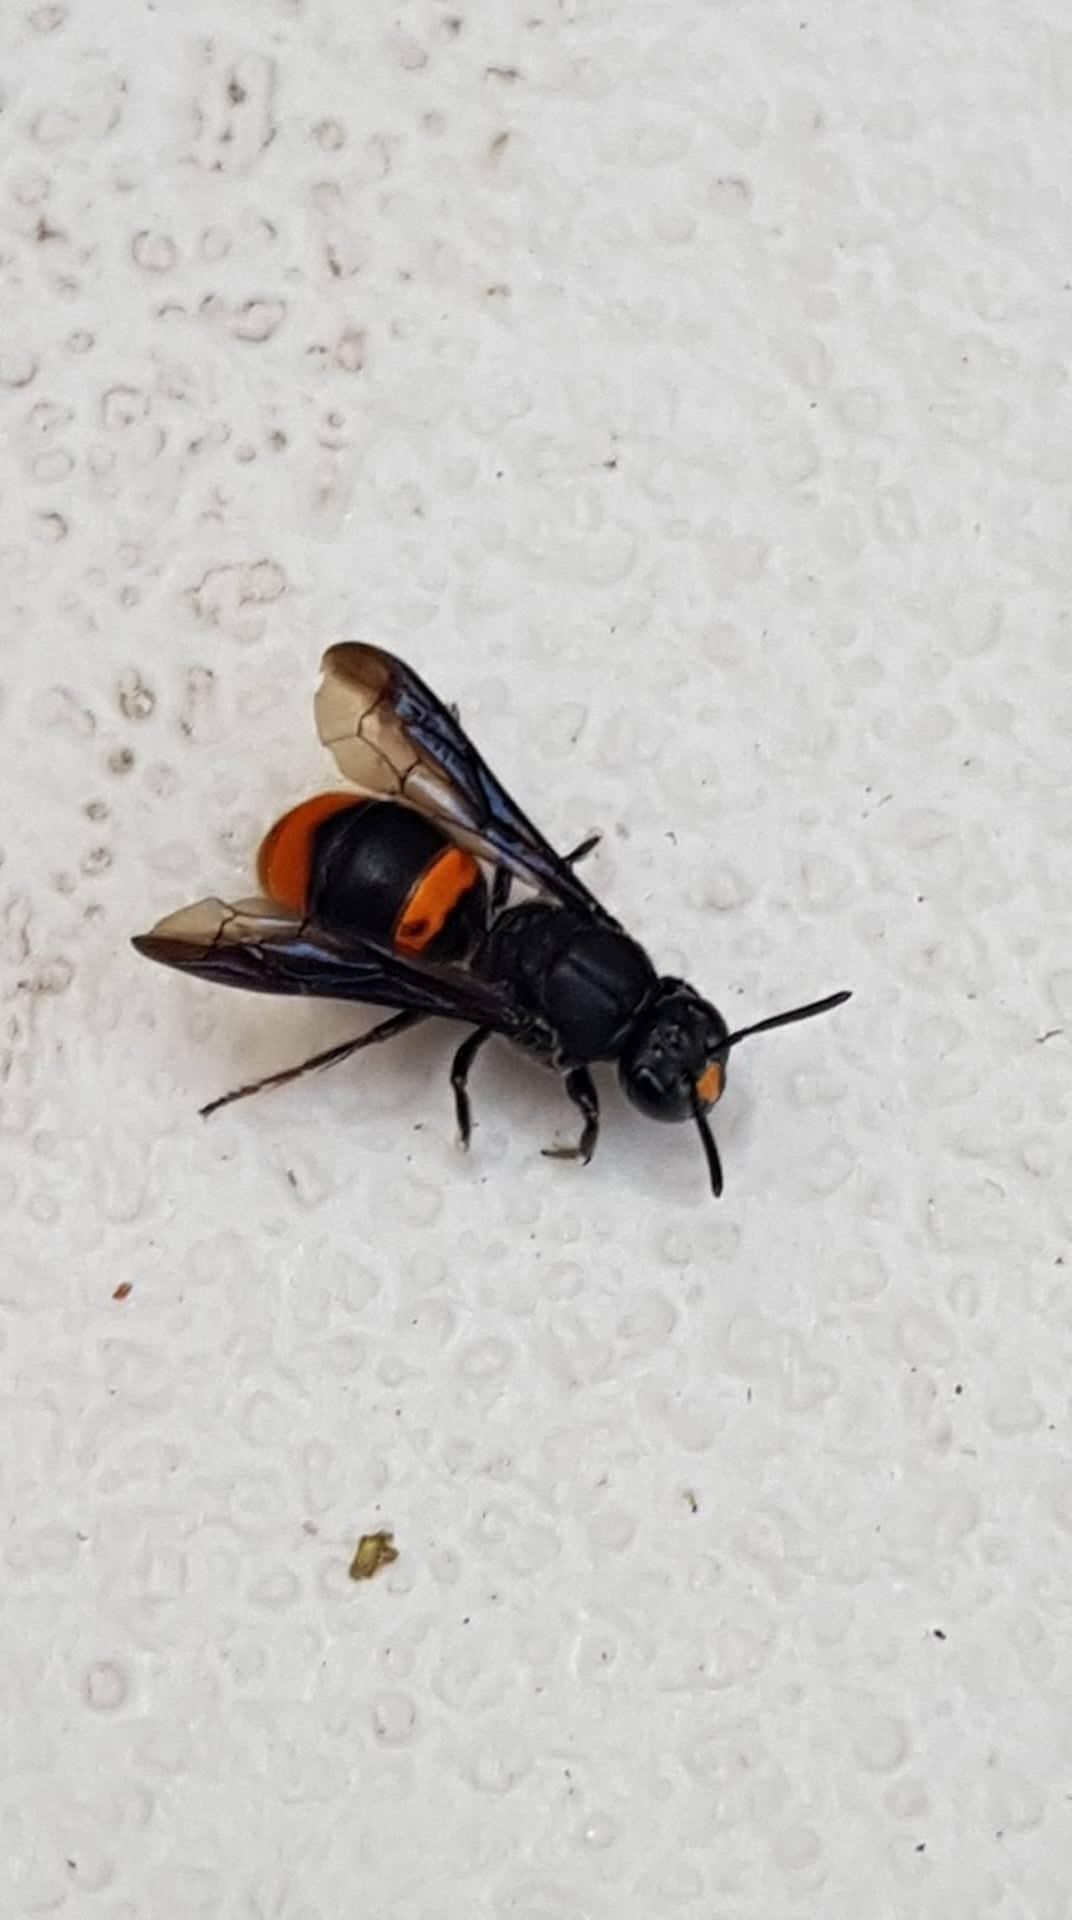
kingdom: Animalia
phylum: Arthropoda
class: Insecta
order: Hymenoptera
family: Colletidae
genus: Hyleoides
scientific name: Hyleoides concinna
